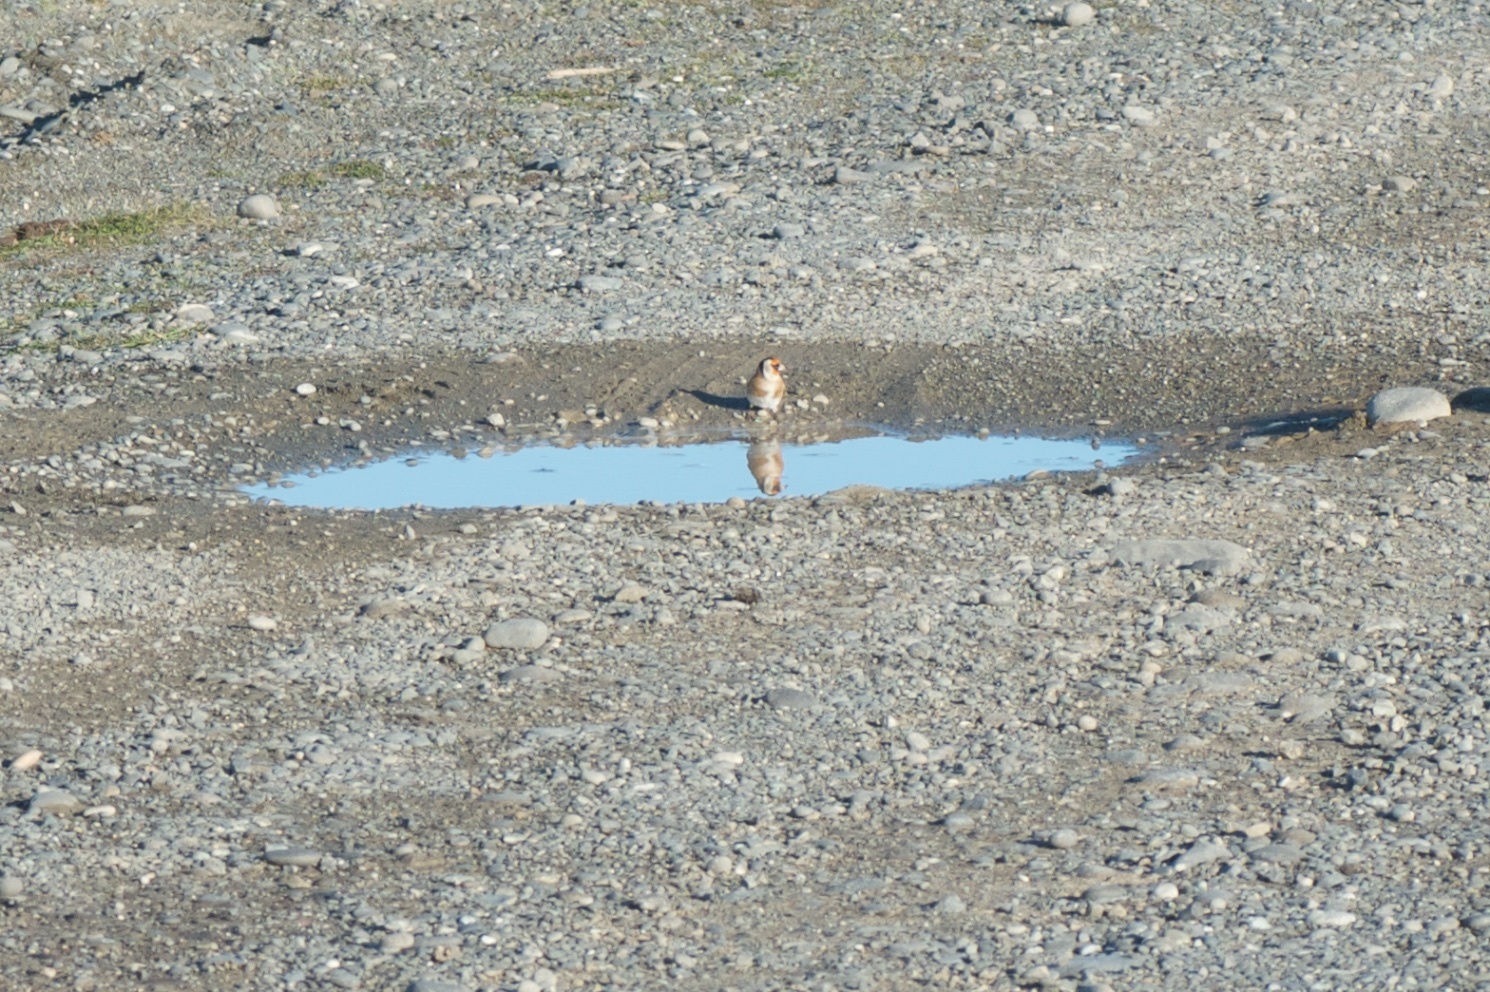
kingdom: Animalia
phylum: Chordata
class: Aves
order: Passeriformes
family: Fringillidae
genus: Carduelis
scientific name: Carduelis carduelis
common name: European goldfinch
